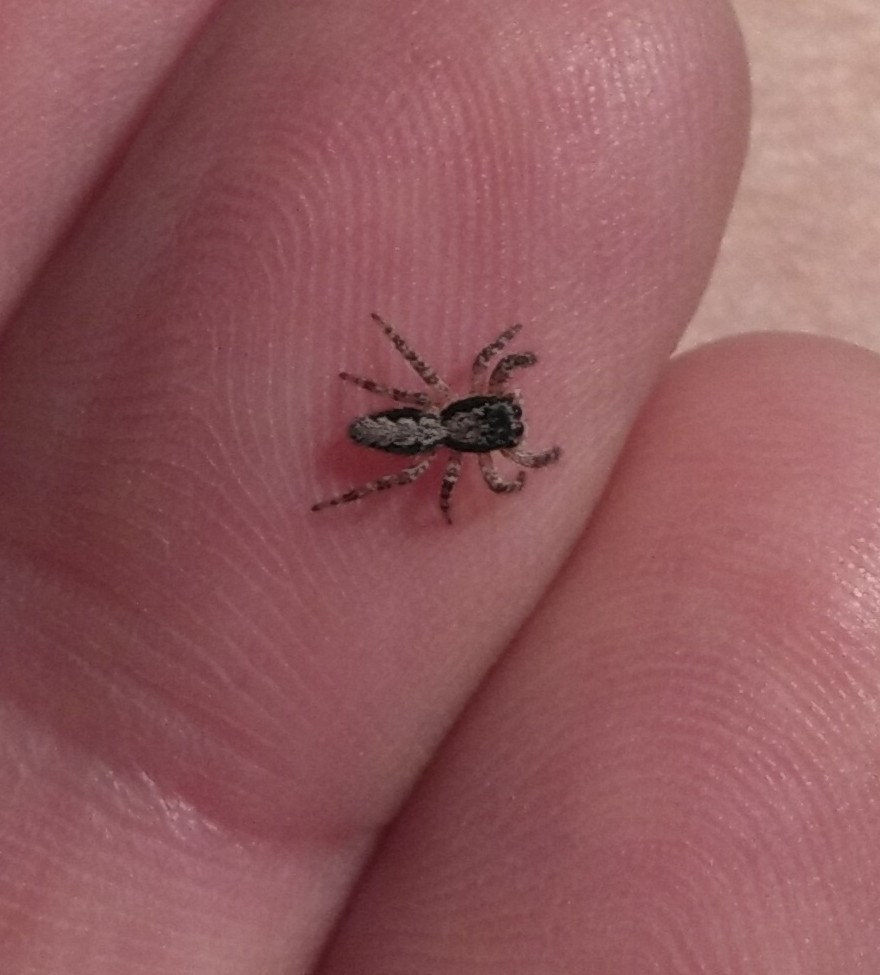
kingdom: Animalia
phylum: Arthropoda
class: Arachnida
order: Araneae
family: Salticidae
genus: Platycryptus
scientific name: Platycryptus californicus
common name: Jumping spiders
